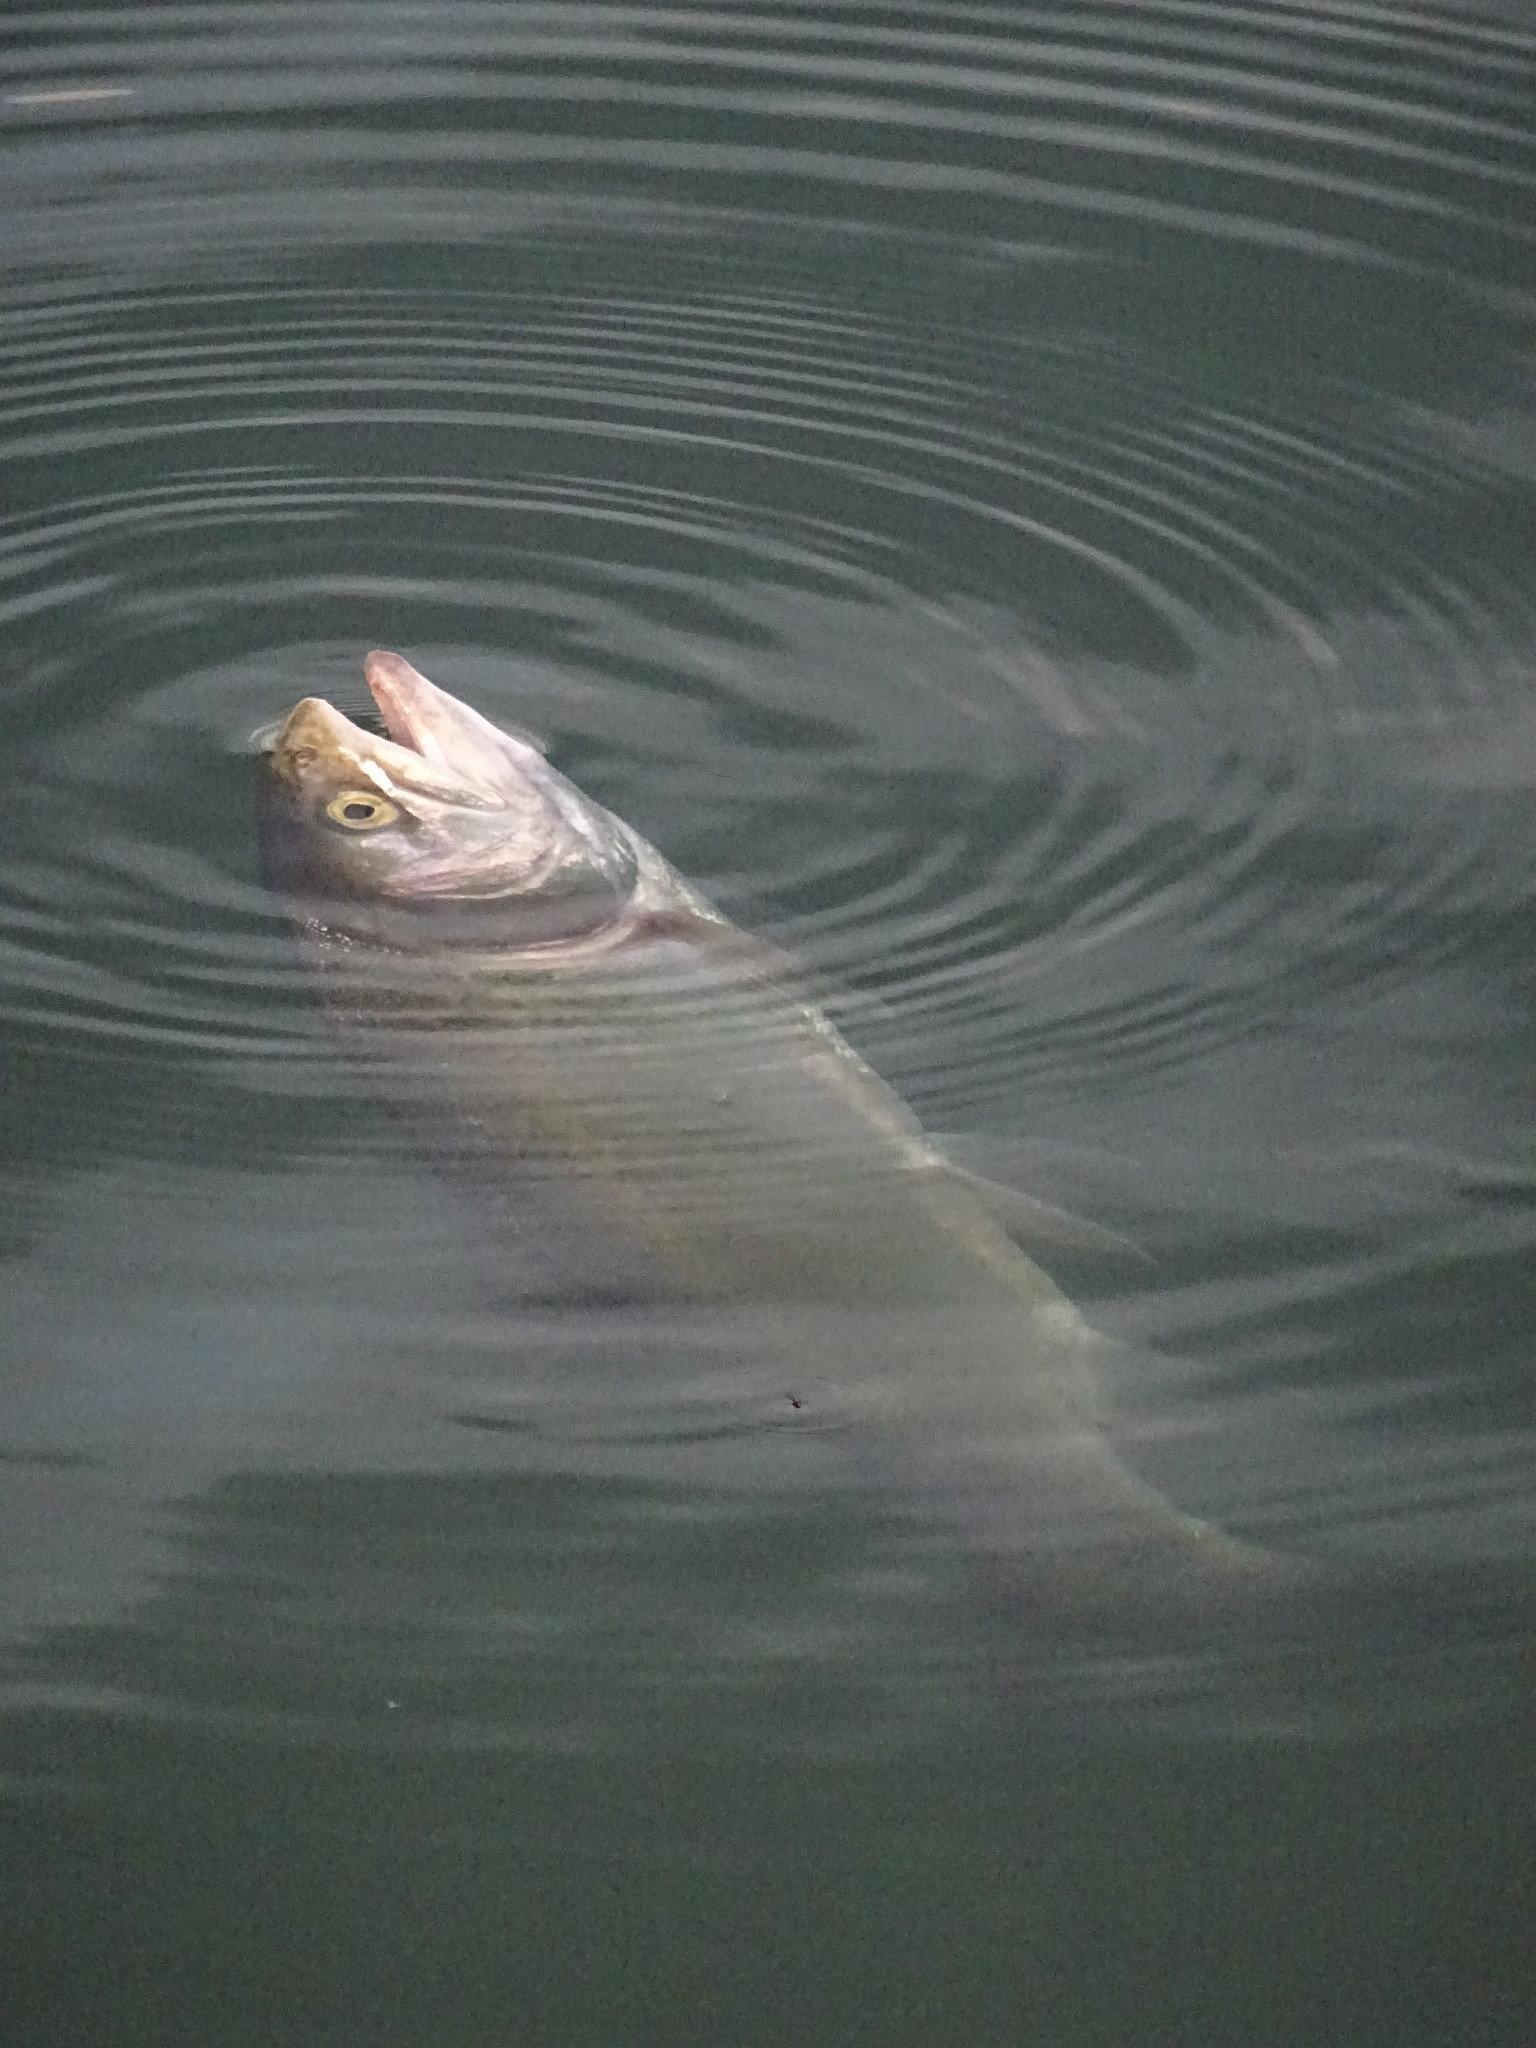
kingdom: Animalia
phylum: Chordata
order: Salmoniformes
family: Salmonidae
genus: Oncorhynchus
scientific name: Oncorhynchus mykiss
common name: Rainbow trout
